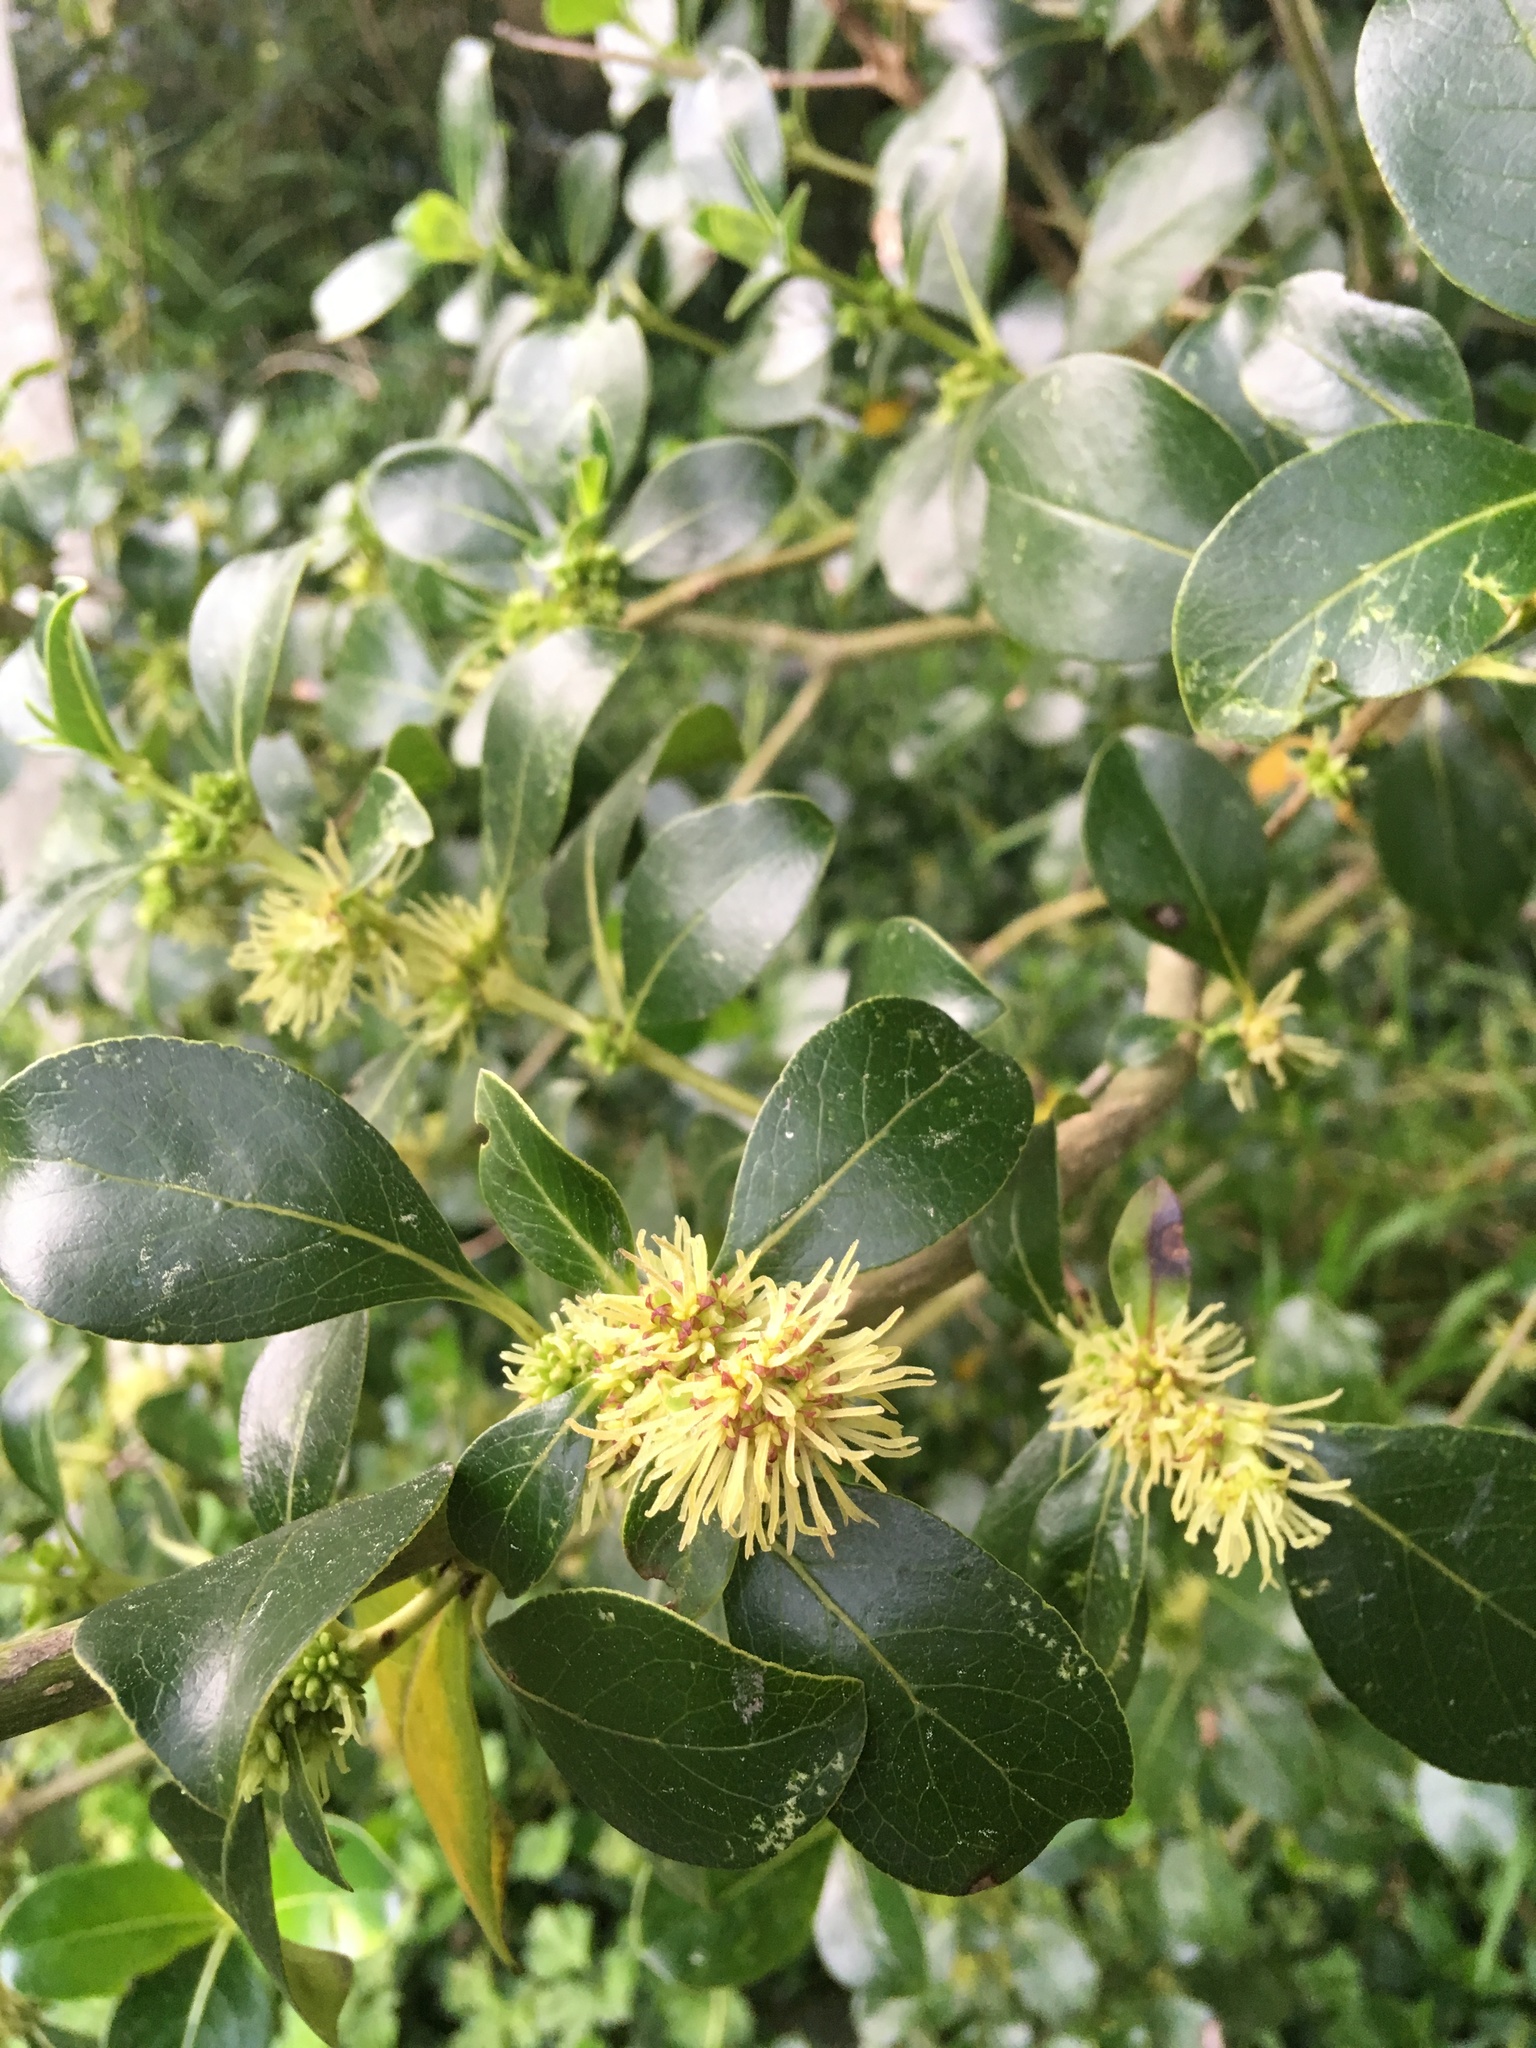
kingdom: Plantae
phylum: Tracheophyta
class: Magnoliopsida
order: Gentianales
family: Rubiaceae
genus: Coprosma
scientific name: Coprosma robusta
